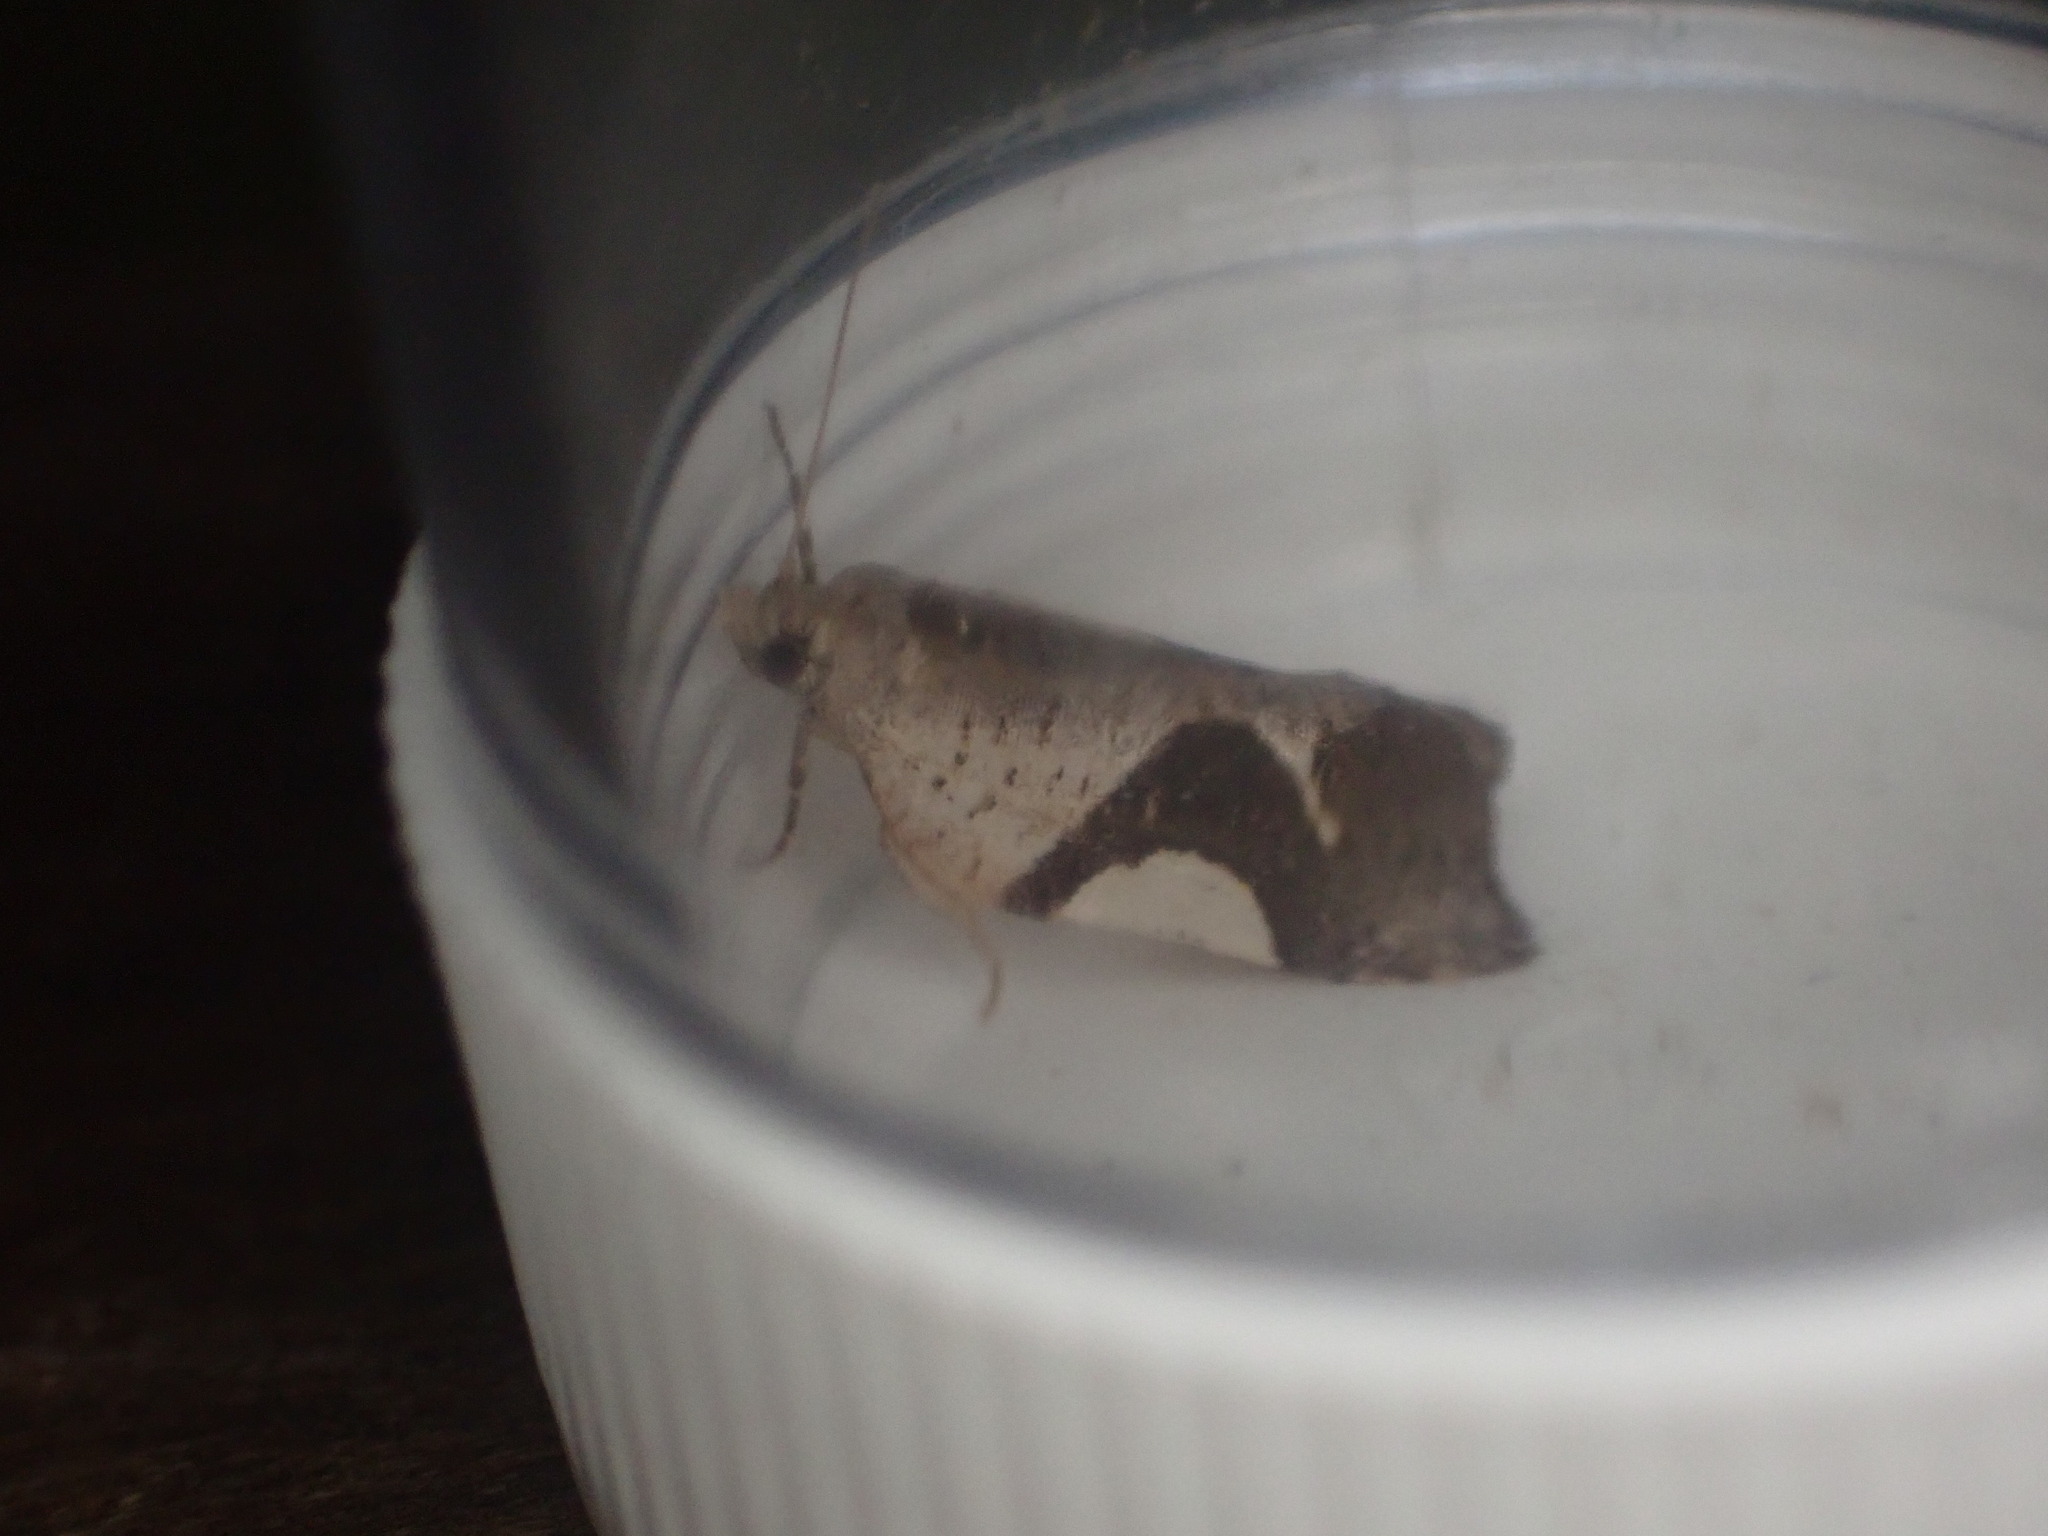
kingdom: Animalia
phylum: Arthropoda
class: Insecta
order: Lepidoptera
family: Tortricidae
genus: Pyrgotis
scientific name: Pyrgotis plagiatana
